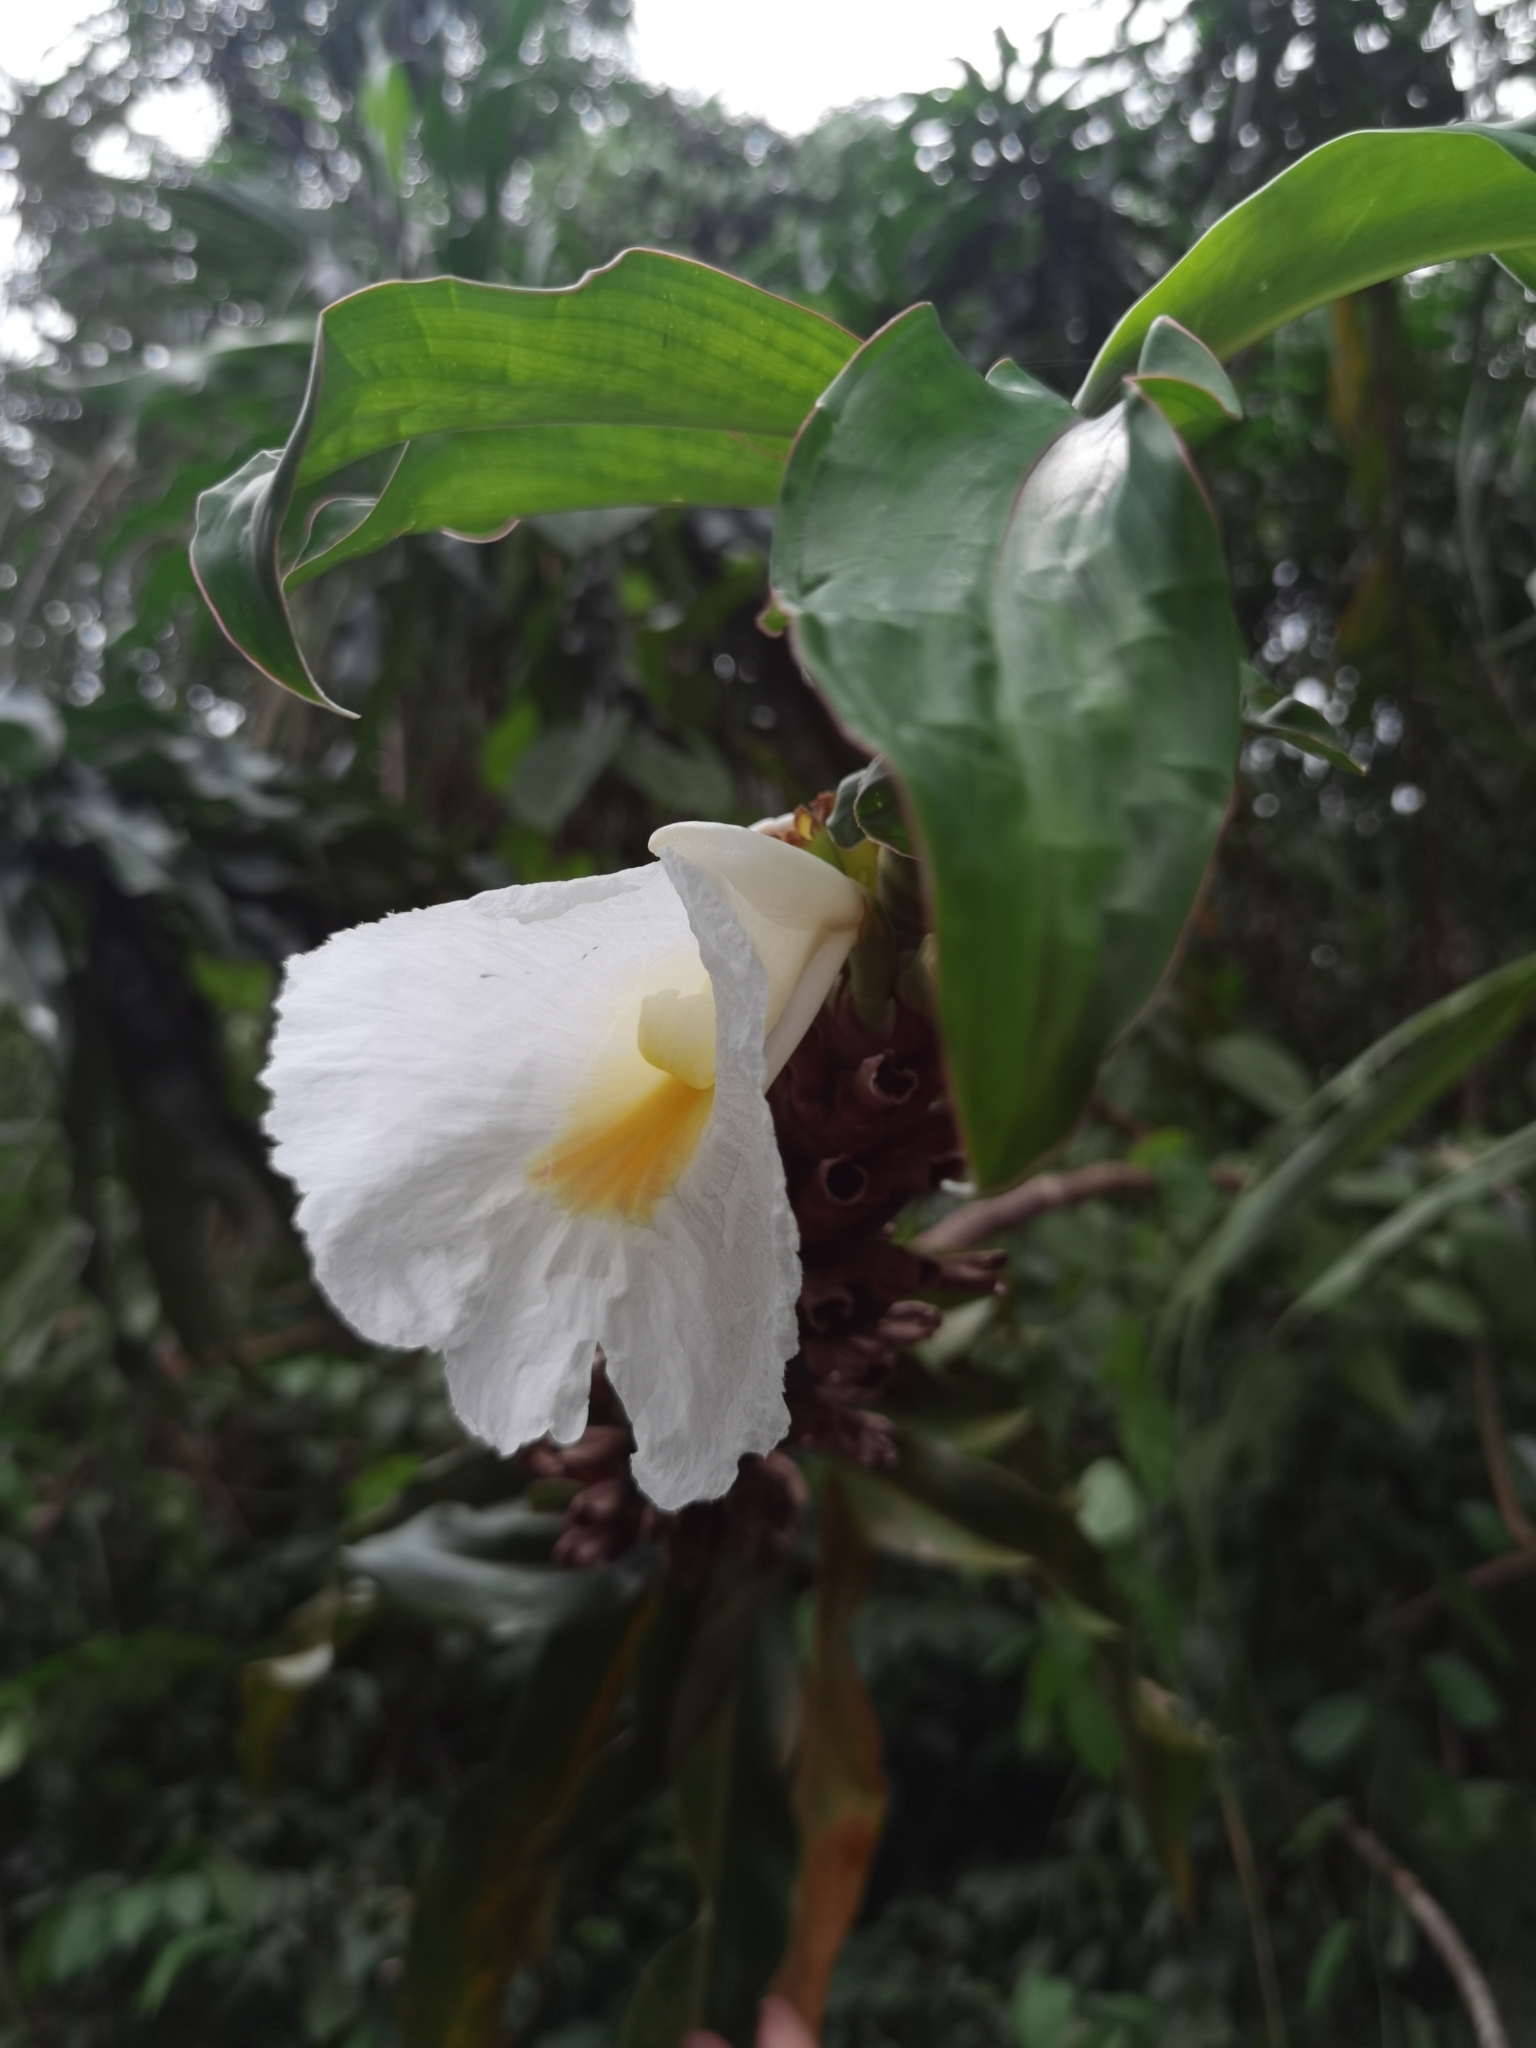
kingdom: Plantae
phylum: Tracheophyta
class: Liliopsida
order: Zingiberales
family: Costaceae
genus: Dimerocostus
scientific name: Dimerocostus strobilaceus
